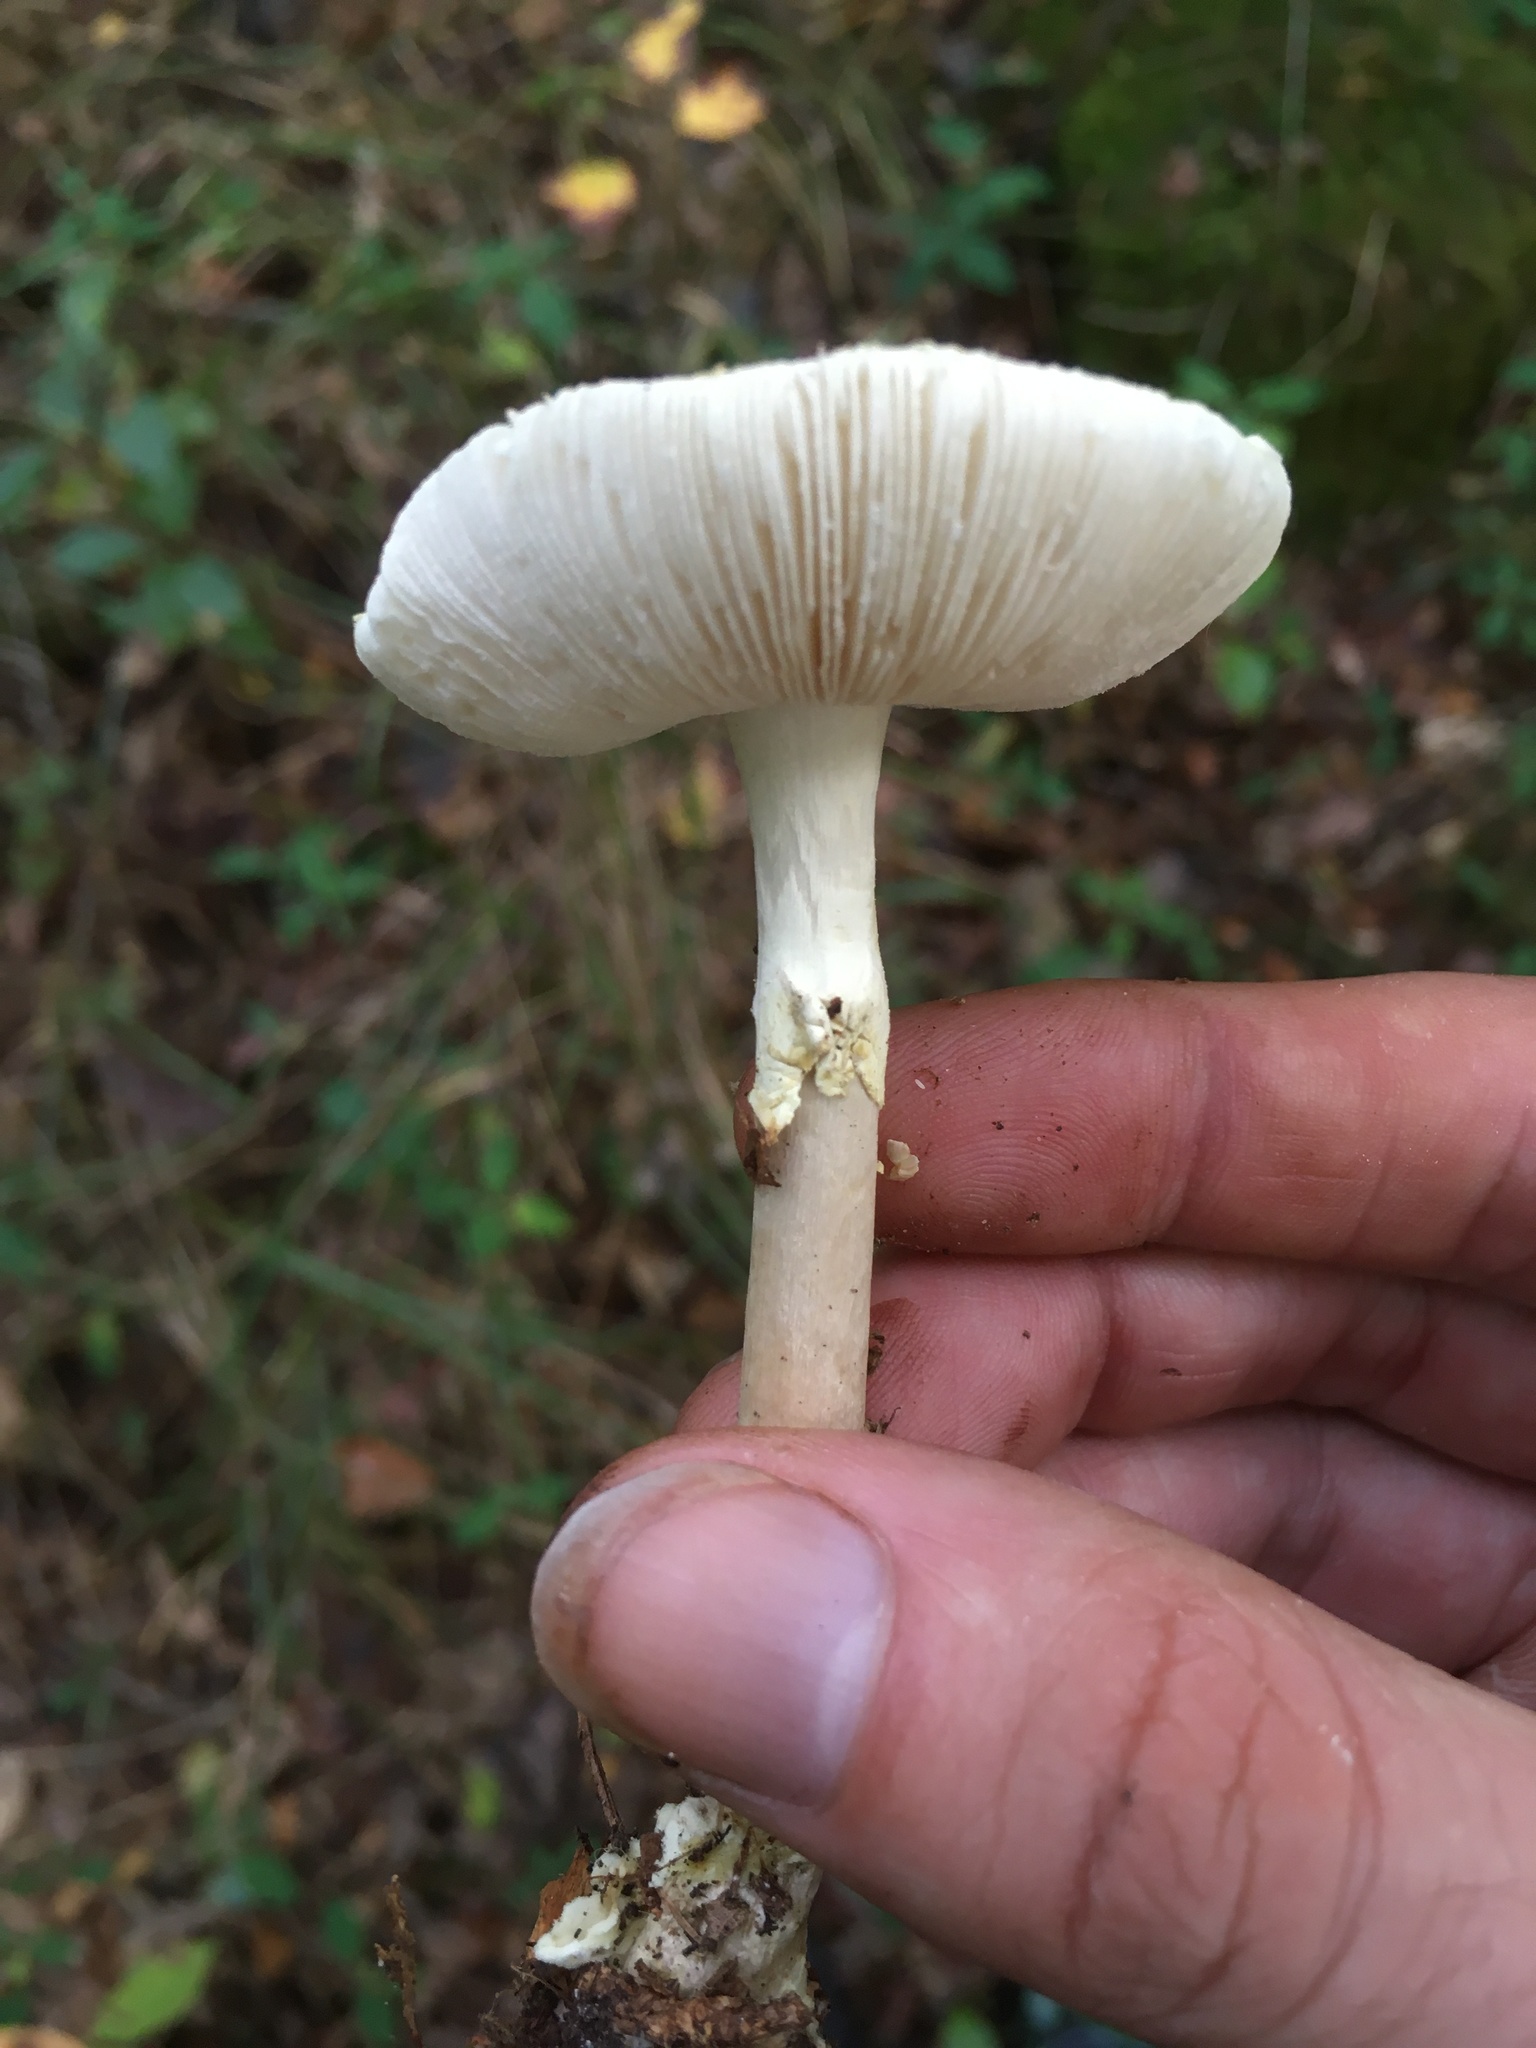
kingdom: Fungi
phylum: Basidiomycota
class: Agaricomycetes
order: Agaricales
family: Amanitaceae
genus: Amanita
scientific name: Amanita citrina
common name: False death-cap
